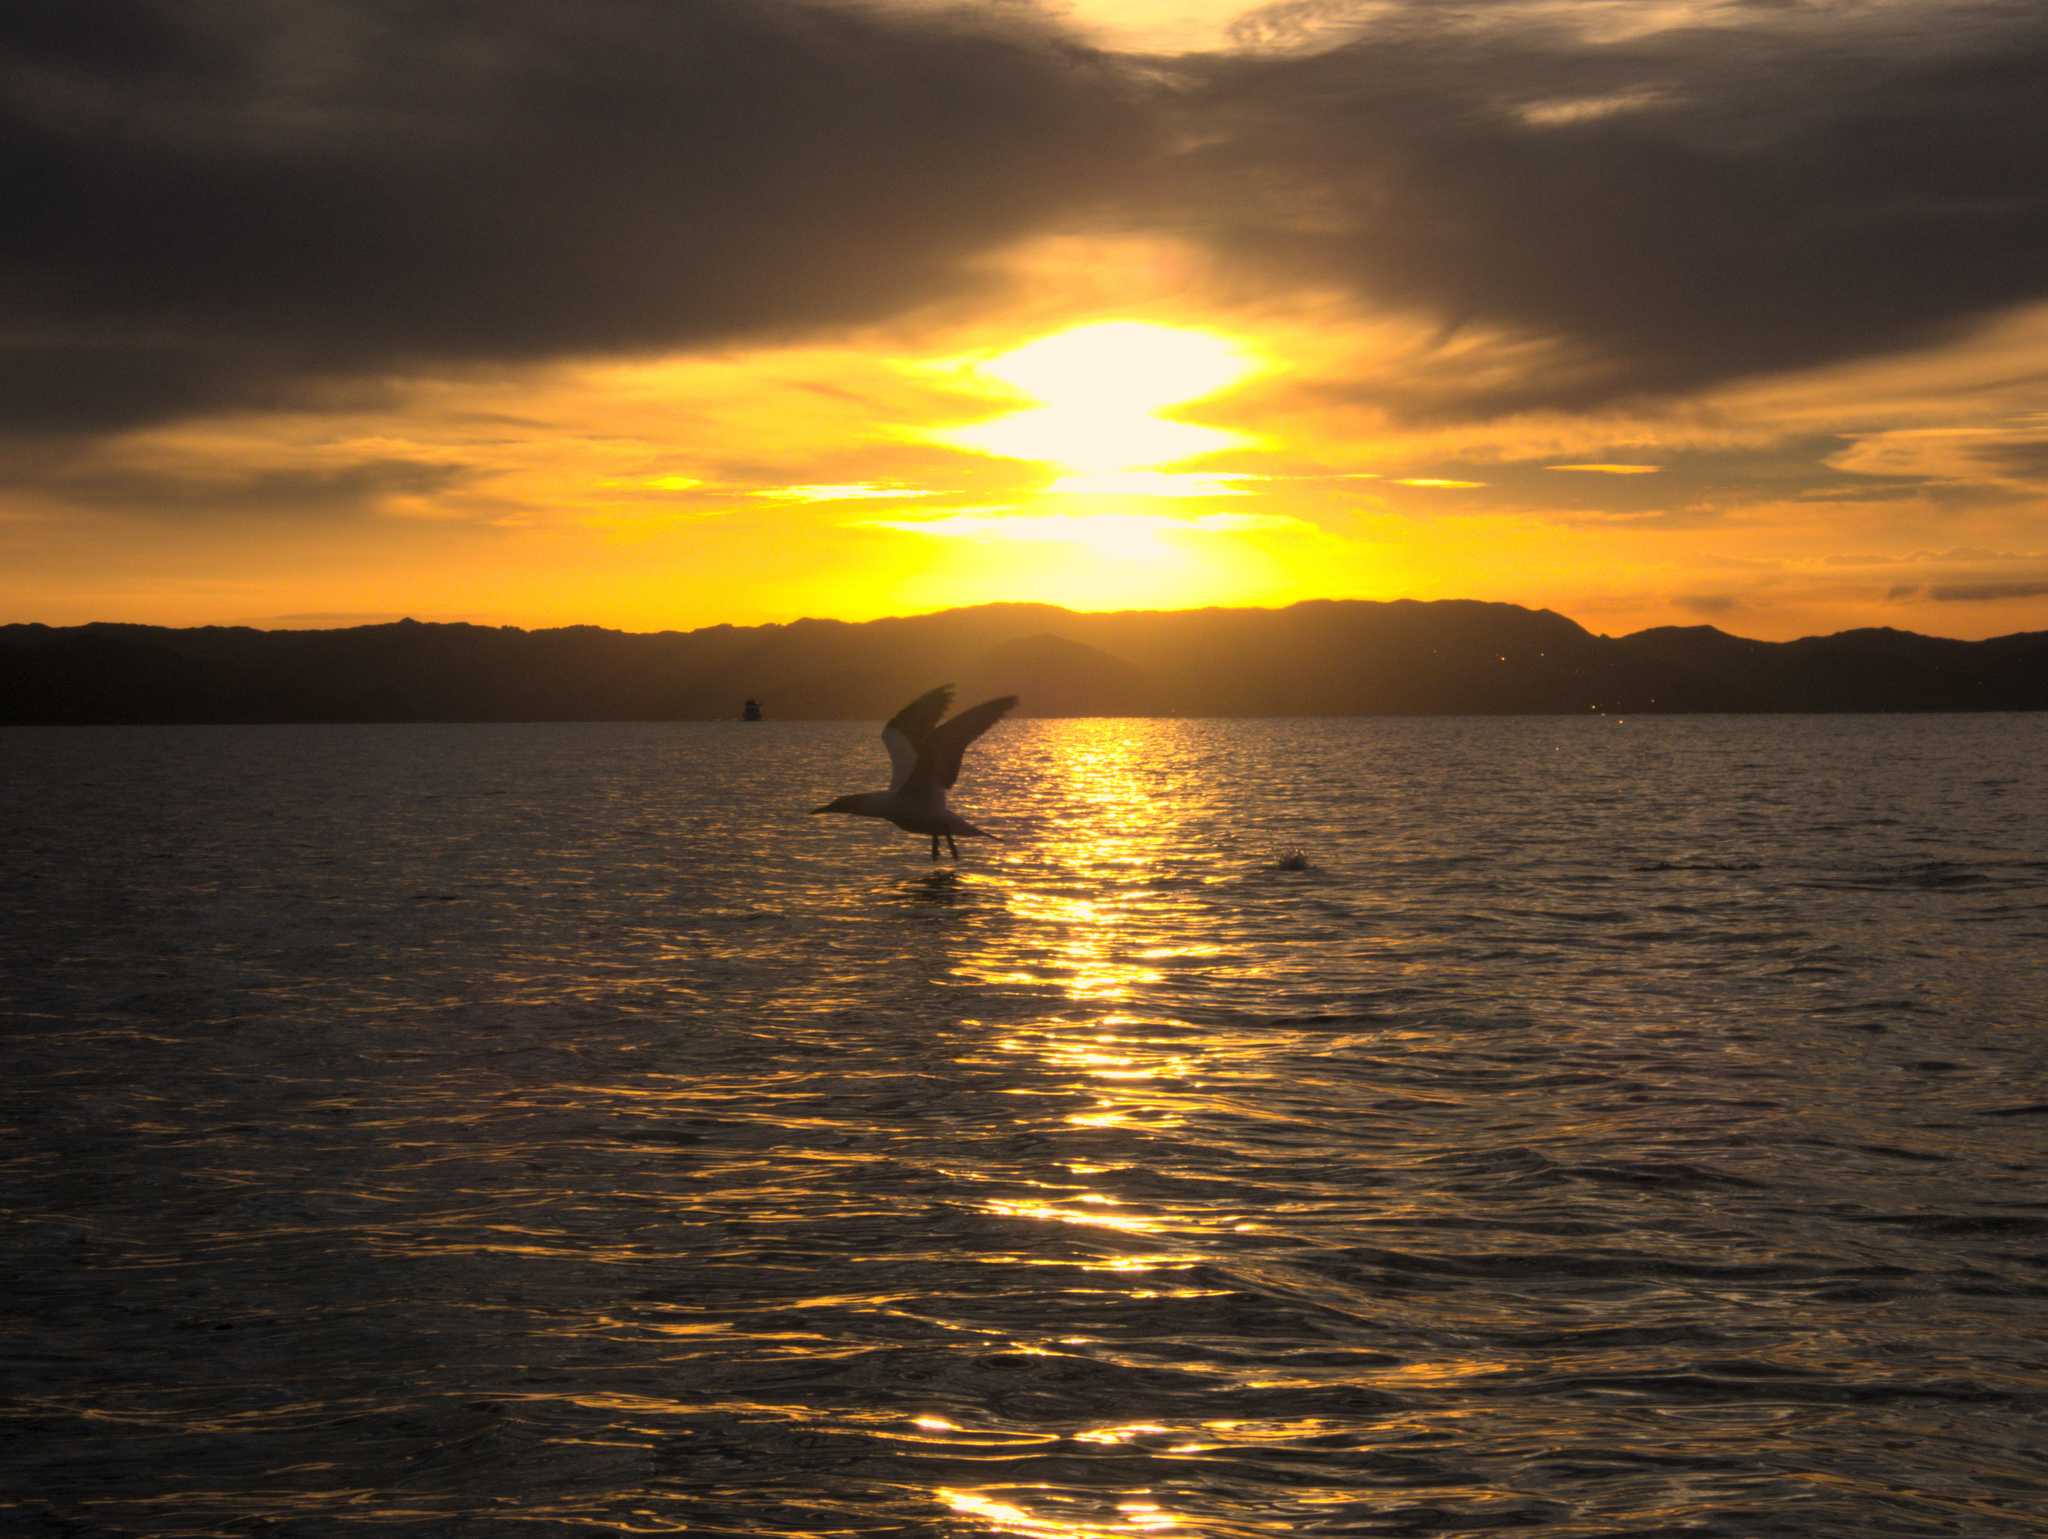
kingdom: Animalia
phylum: Chordata
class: Aves
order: Suliformes
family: Sulidae
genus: Morus
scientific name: Morus serrator
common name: Australasian gannet
